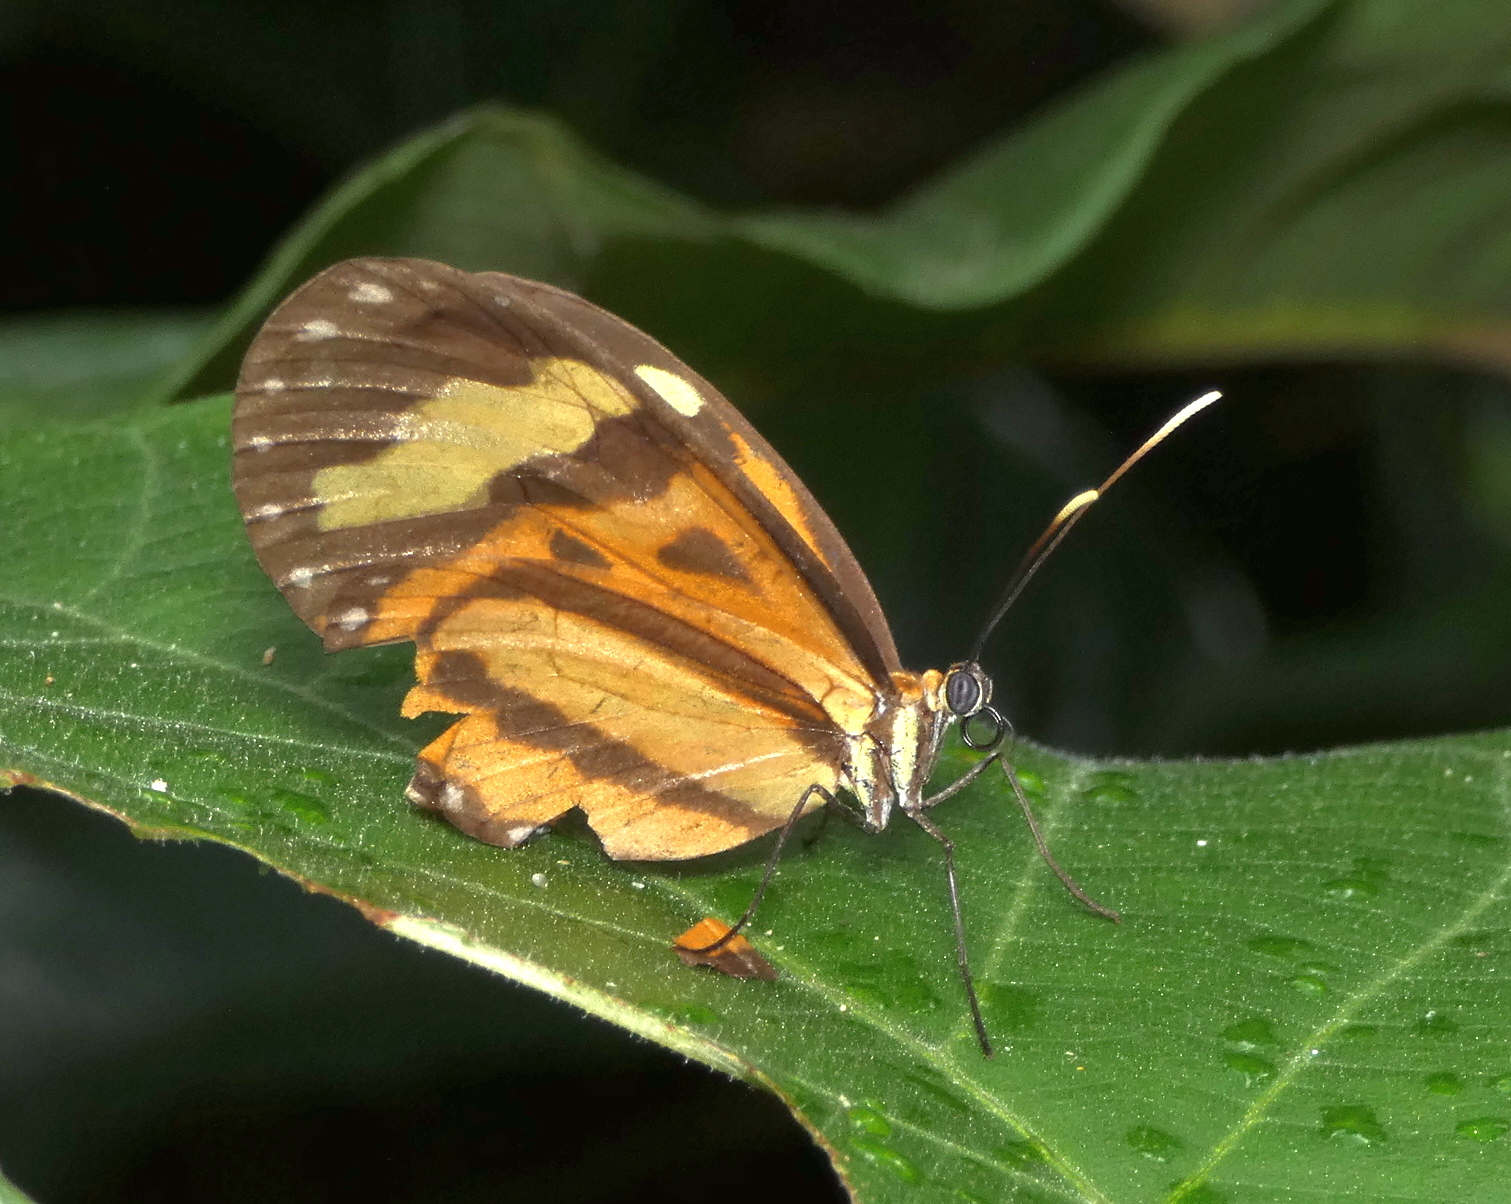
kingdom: Animalia
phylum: Arthropoda
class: Insecta
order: Lepidoptera
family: Nymphalidae
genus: Hypothyris
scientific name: Hypothyris euclea
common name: Euclea tigerwing
